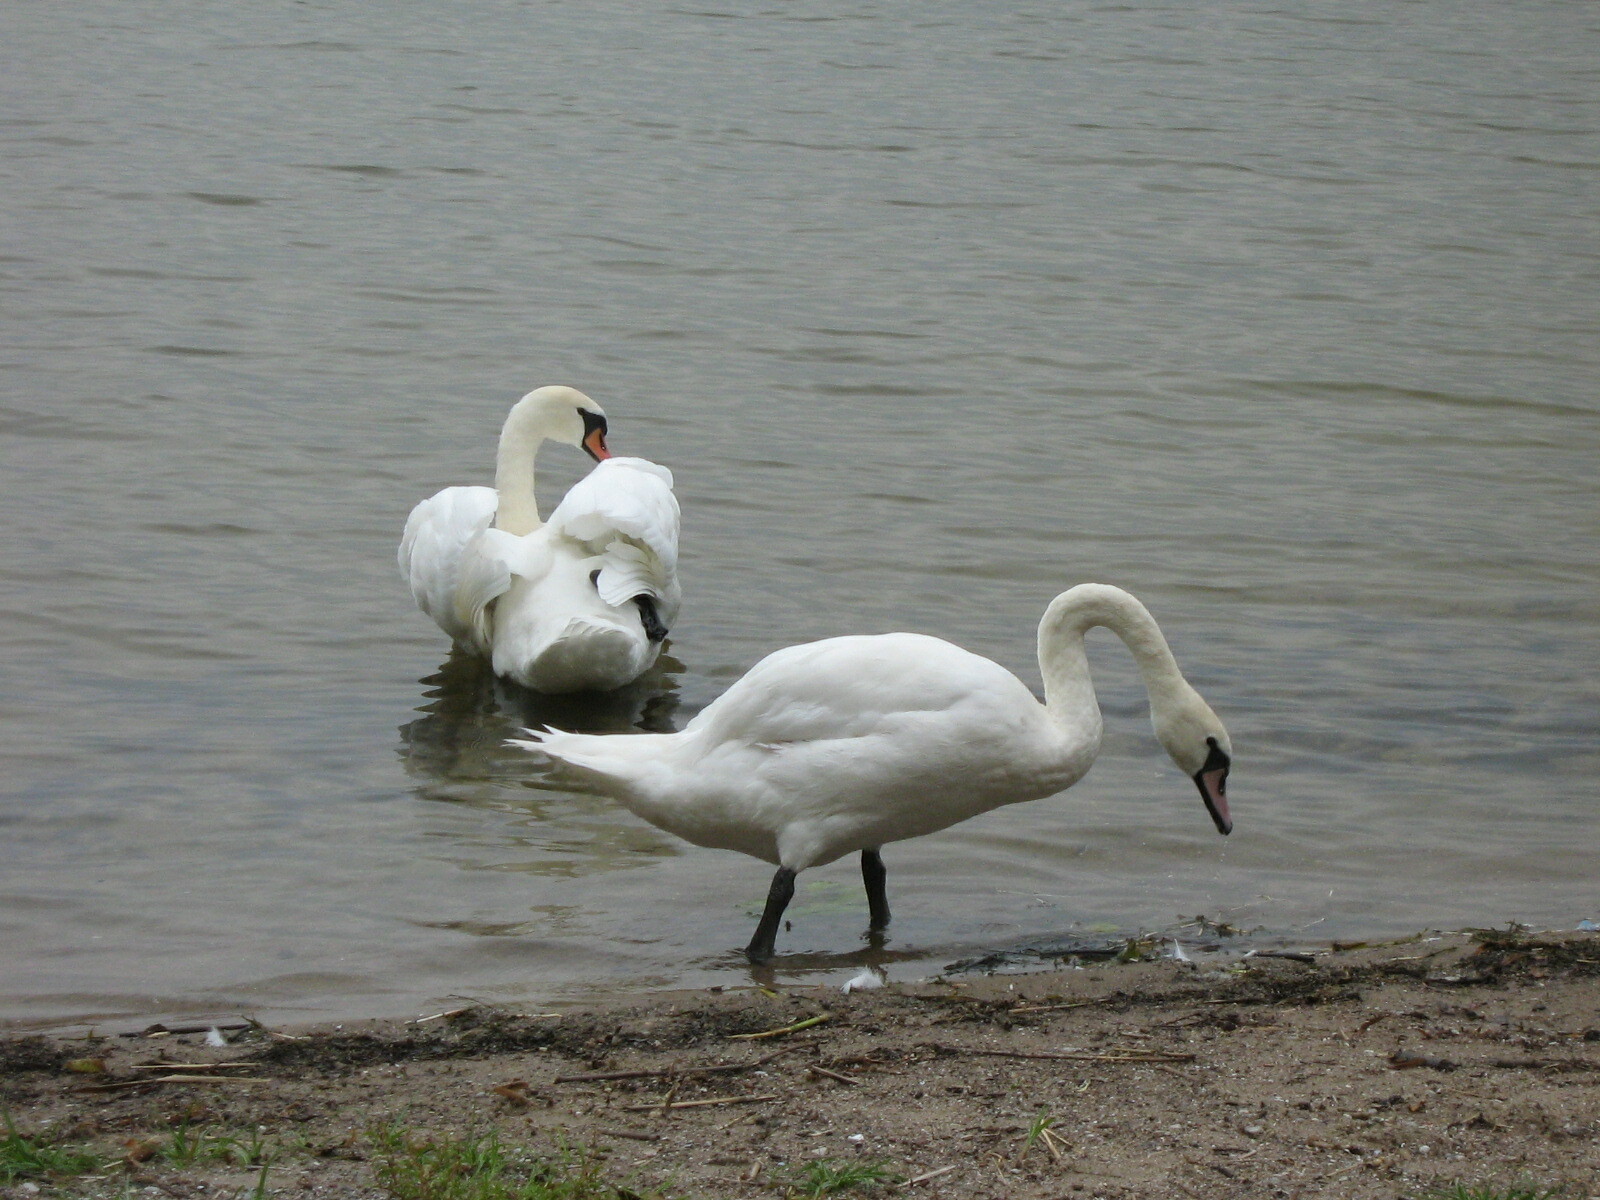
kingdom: Animalia
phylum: Chordata
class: Aves
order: Anseriformes
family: Anatidae
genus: Cygnus
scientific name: Cygnus olor
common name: Mute swan
